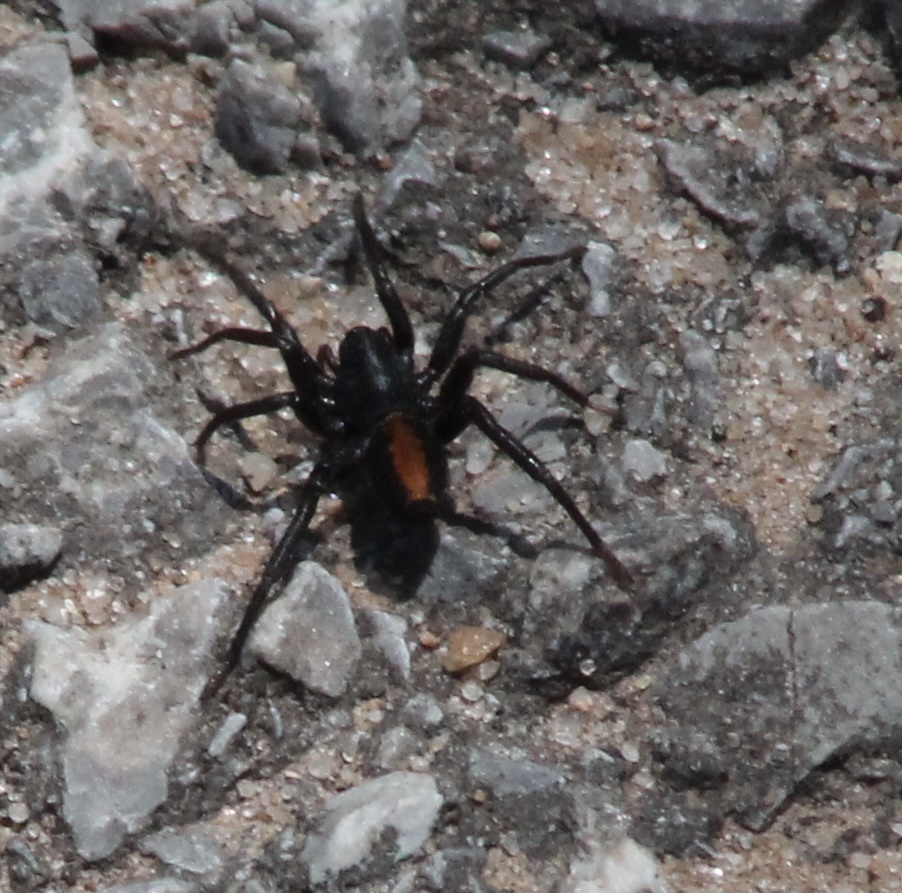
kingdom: Animalia
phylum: Arthropoda
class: Arachnida
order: Araneae
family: Corinnidae
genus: Castianeira
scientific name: Castianeira crocata
